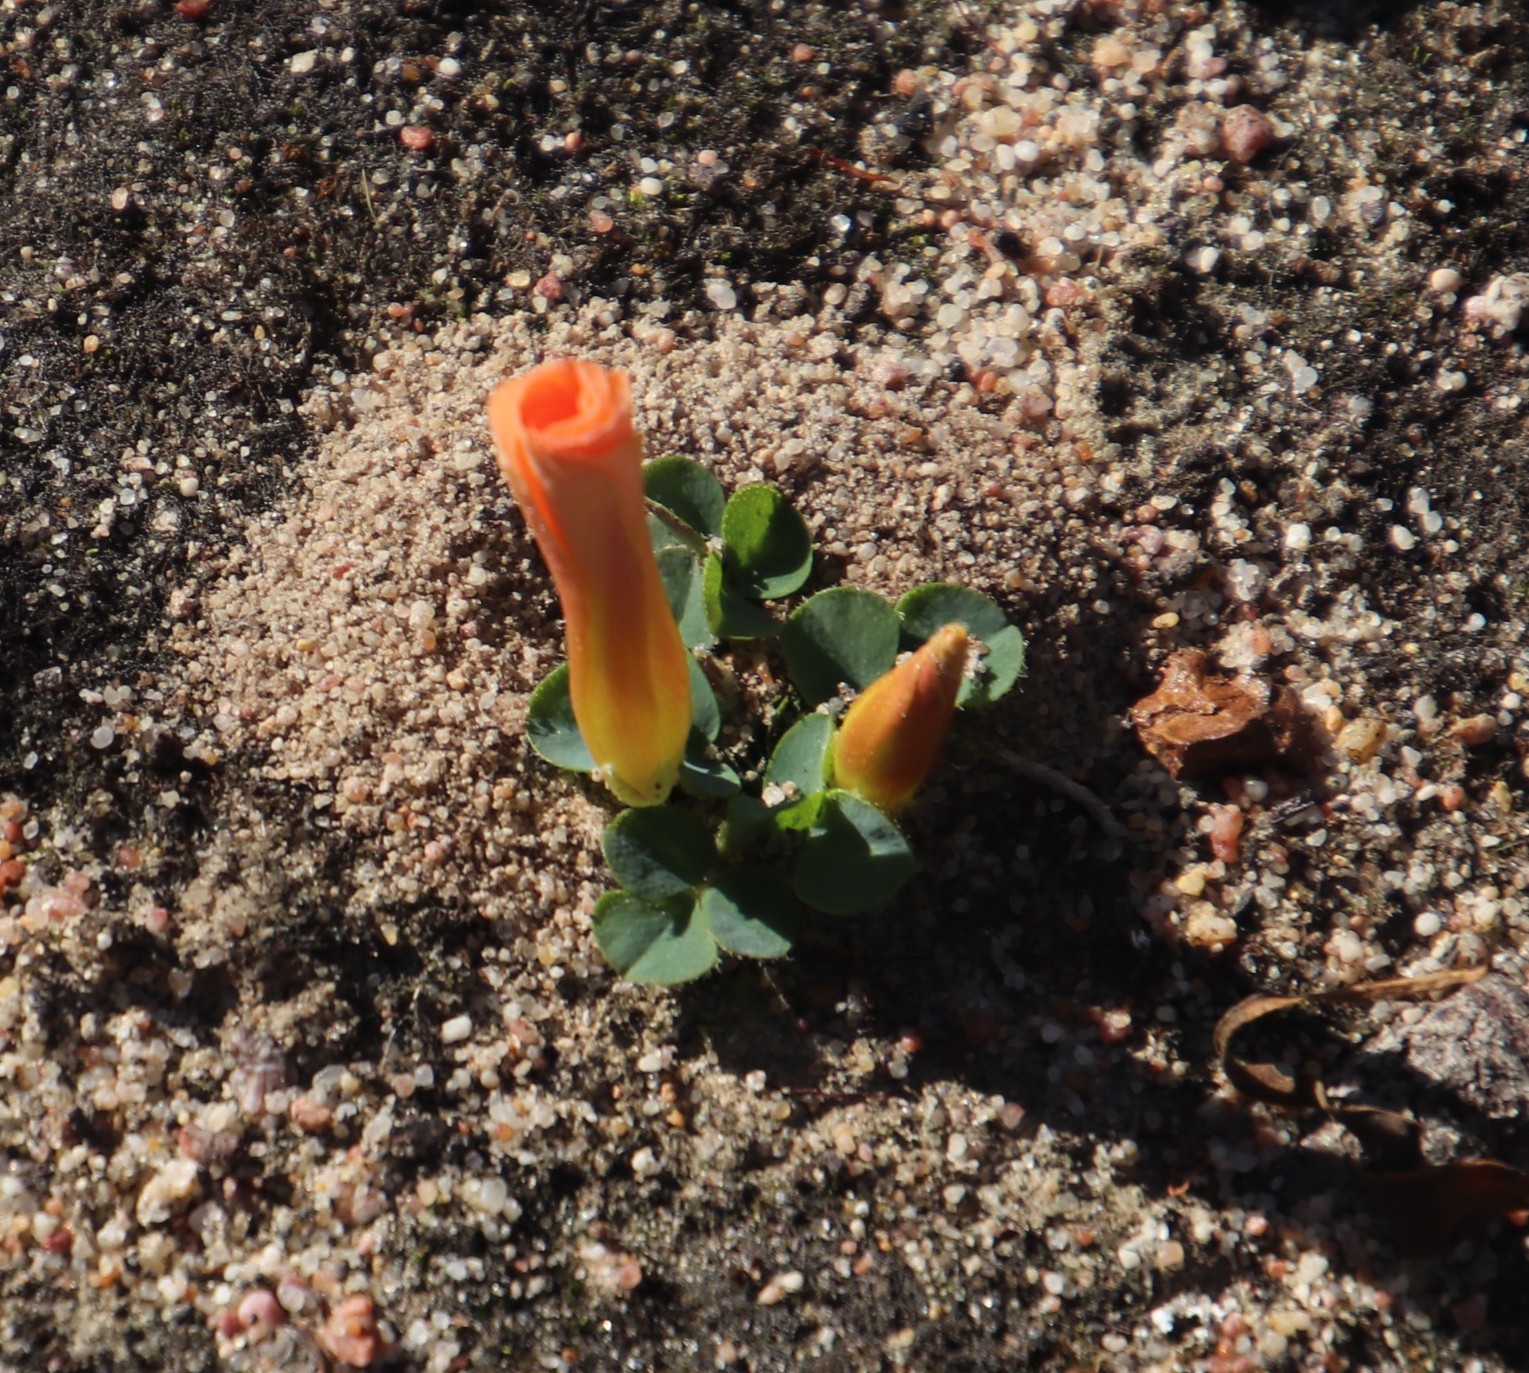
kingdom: Plantae
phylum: Tracheophyta
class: Magnoliopsida
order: Oxalidales
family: Oxalidaceae
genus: Oxalis
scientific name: Oxalis purpurea
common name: Purple woodsorrel
